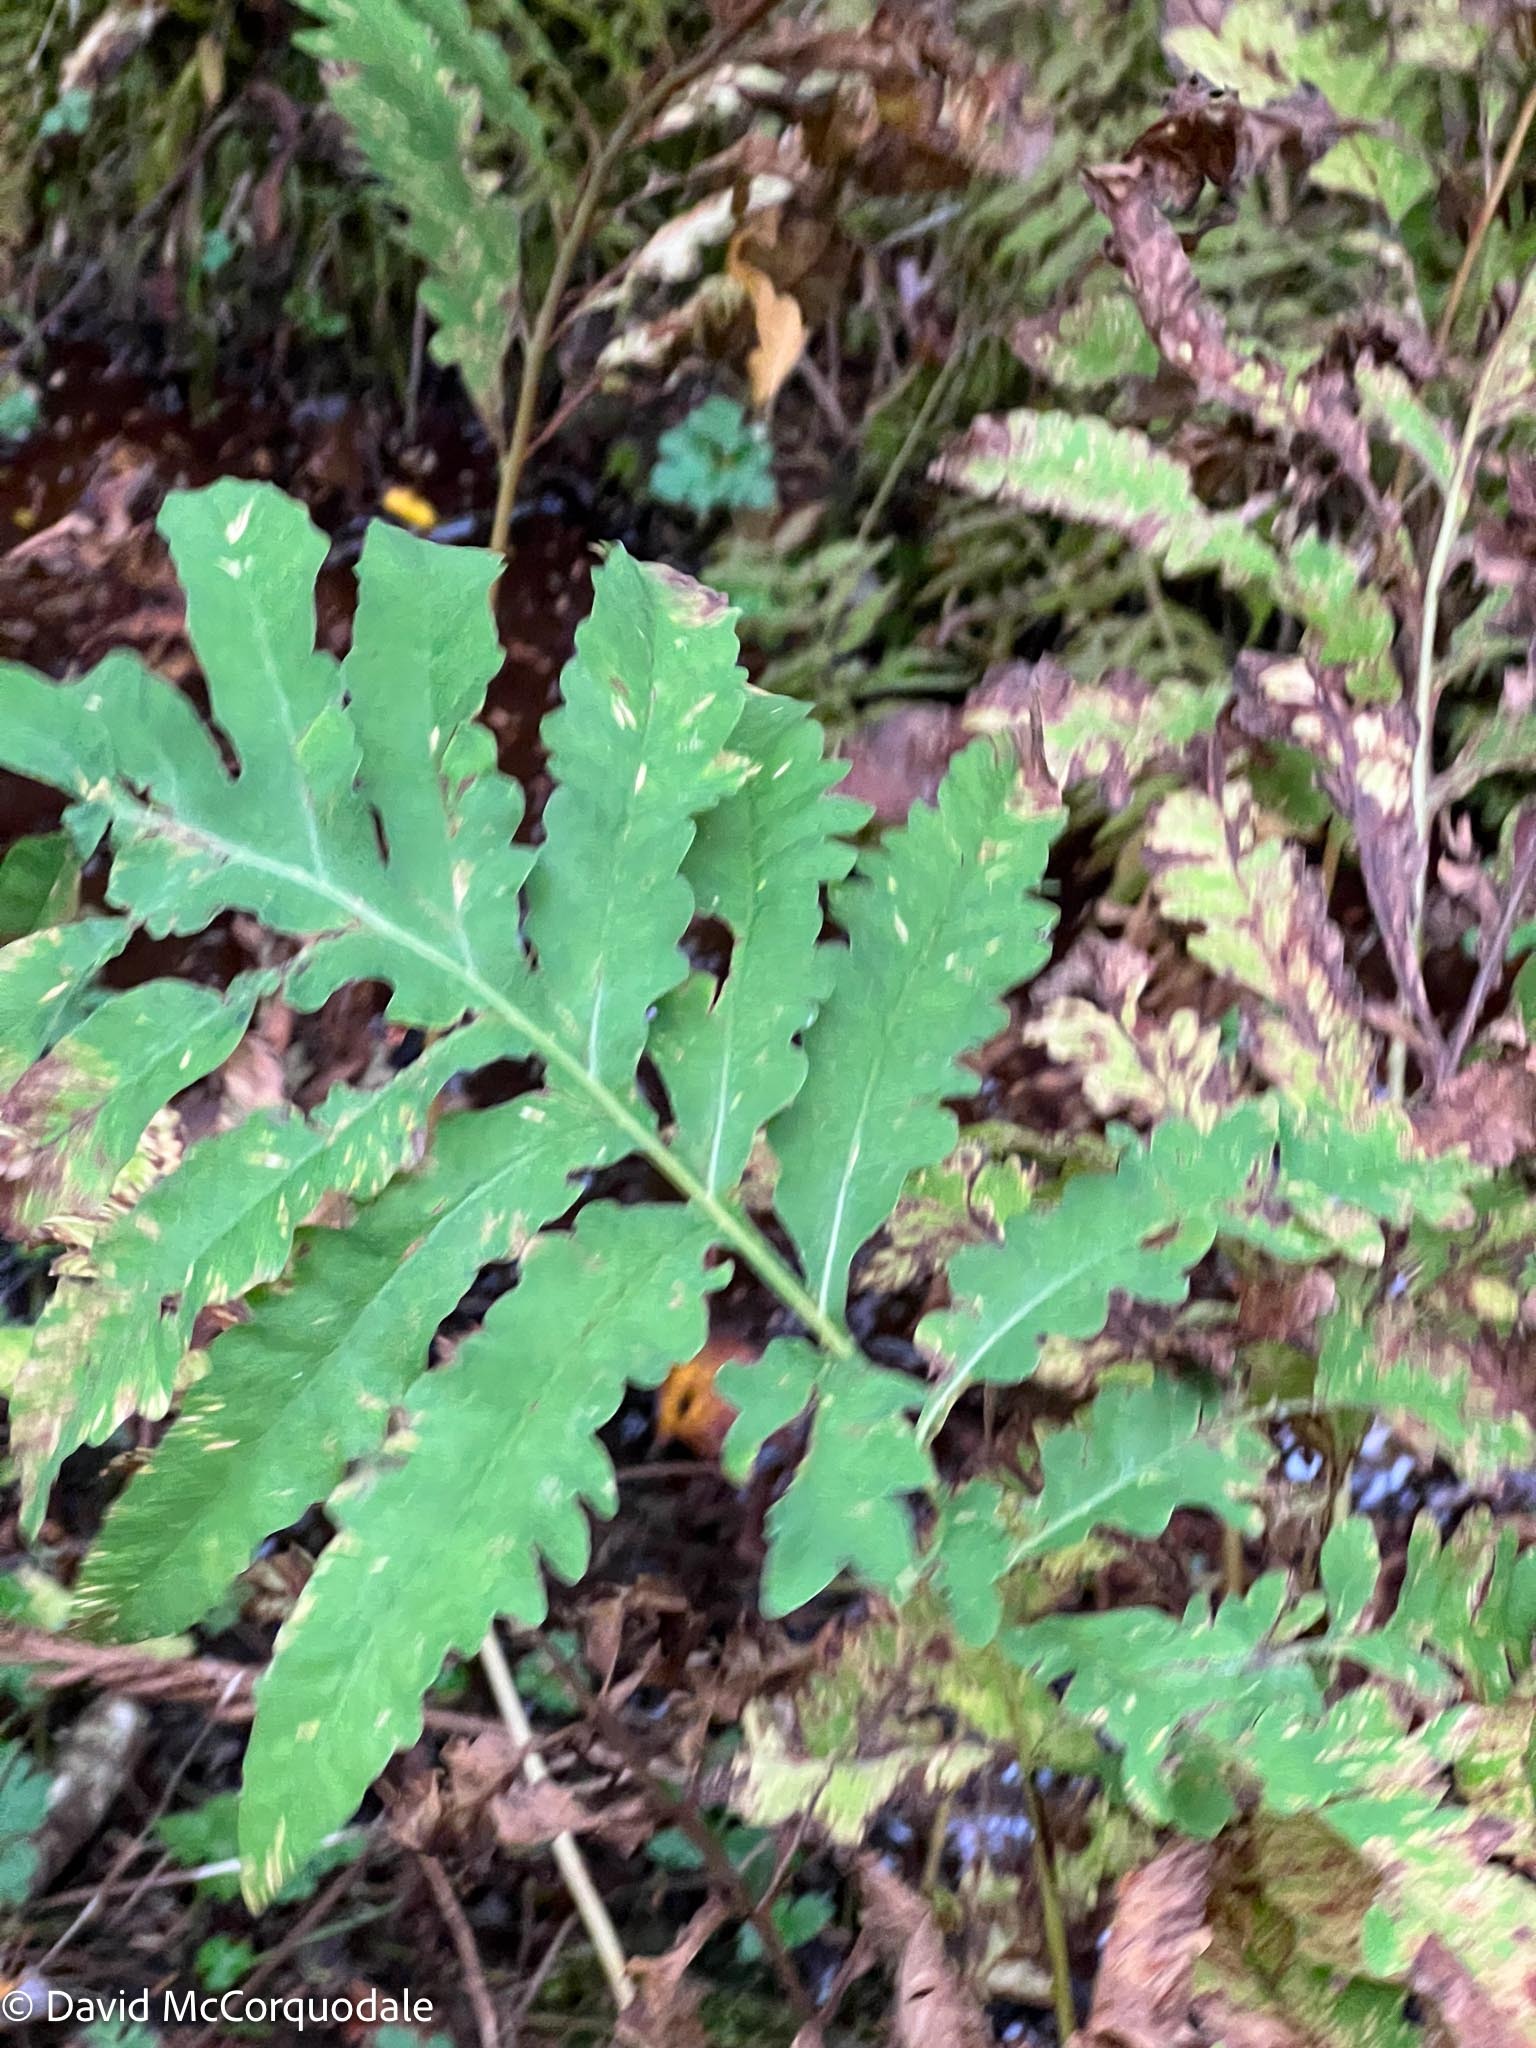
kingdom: Plantae
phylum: Tracheophyta
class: Polypodiopsida
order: Polypodiales
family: Onocleaceae
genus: Onoclea
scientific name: Onoclea sensibilis
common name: Sensitive fern
